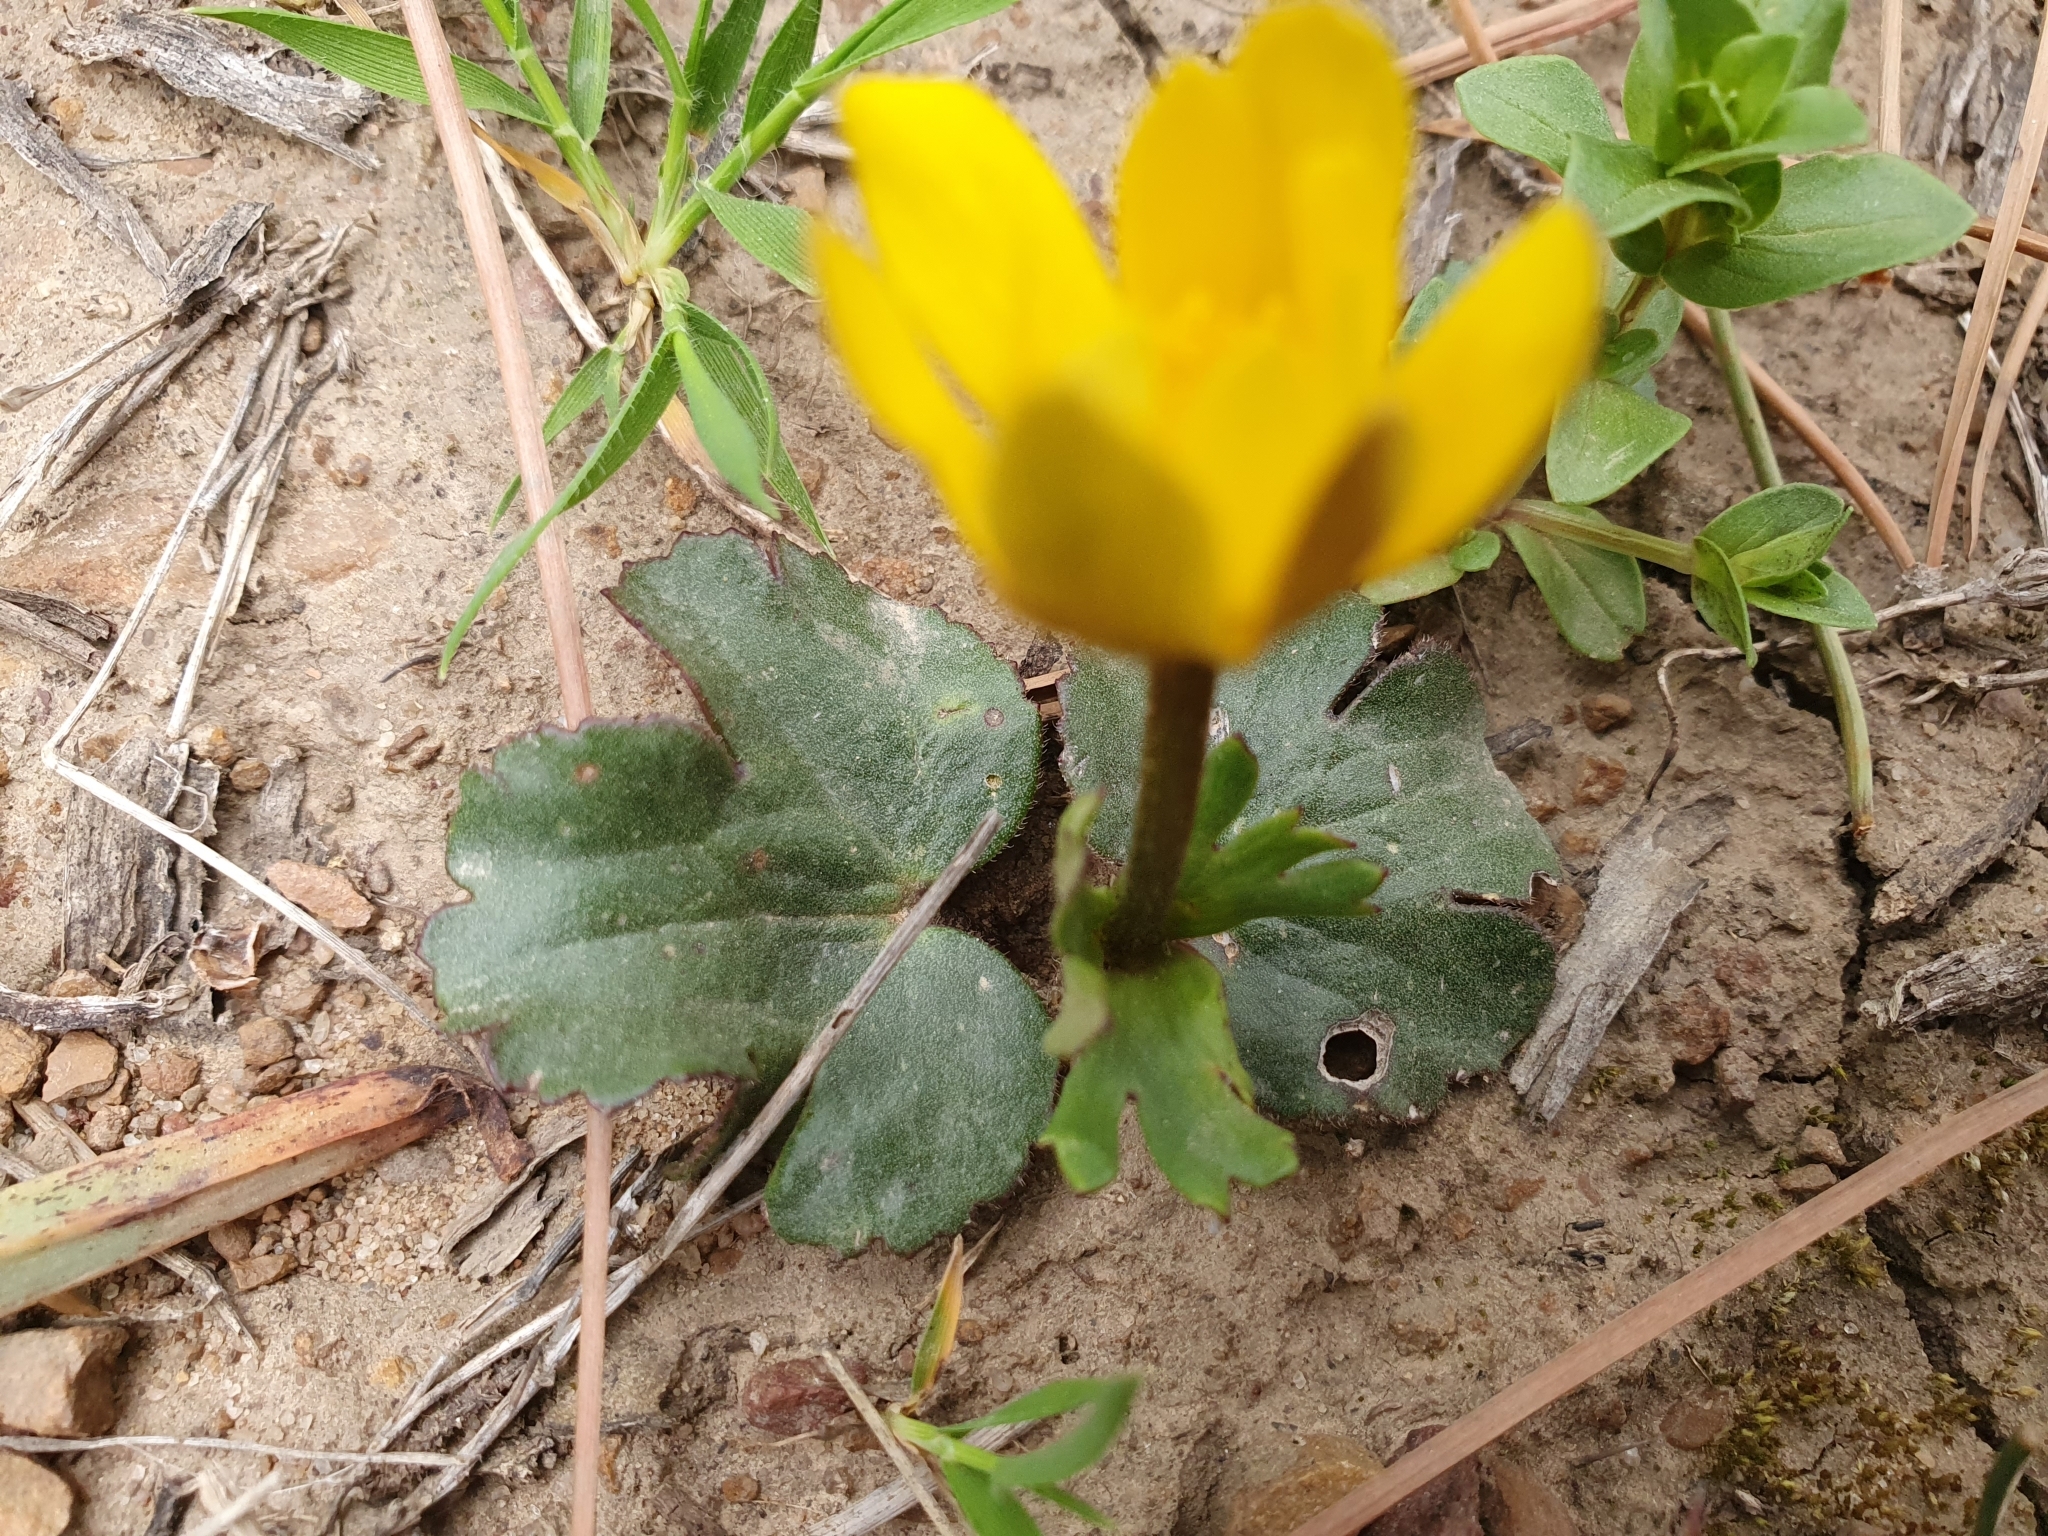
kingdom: Plantae
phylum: Tracheophyta
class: Magnoliopsida
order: Ranunculales
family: Ranunculaceae
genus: Anemone
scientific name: Anemone palmata
